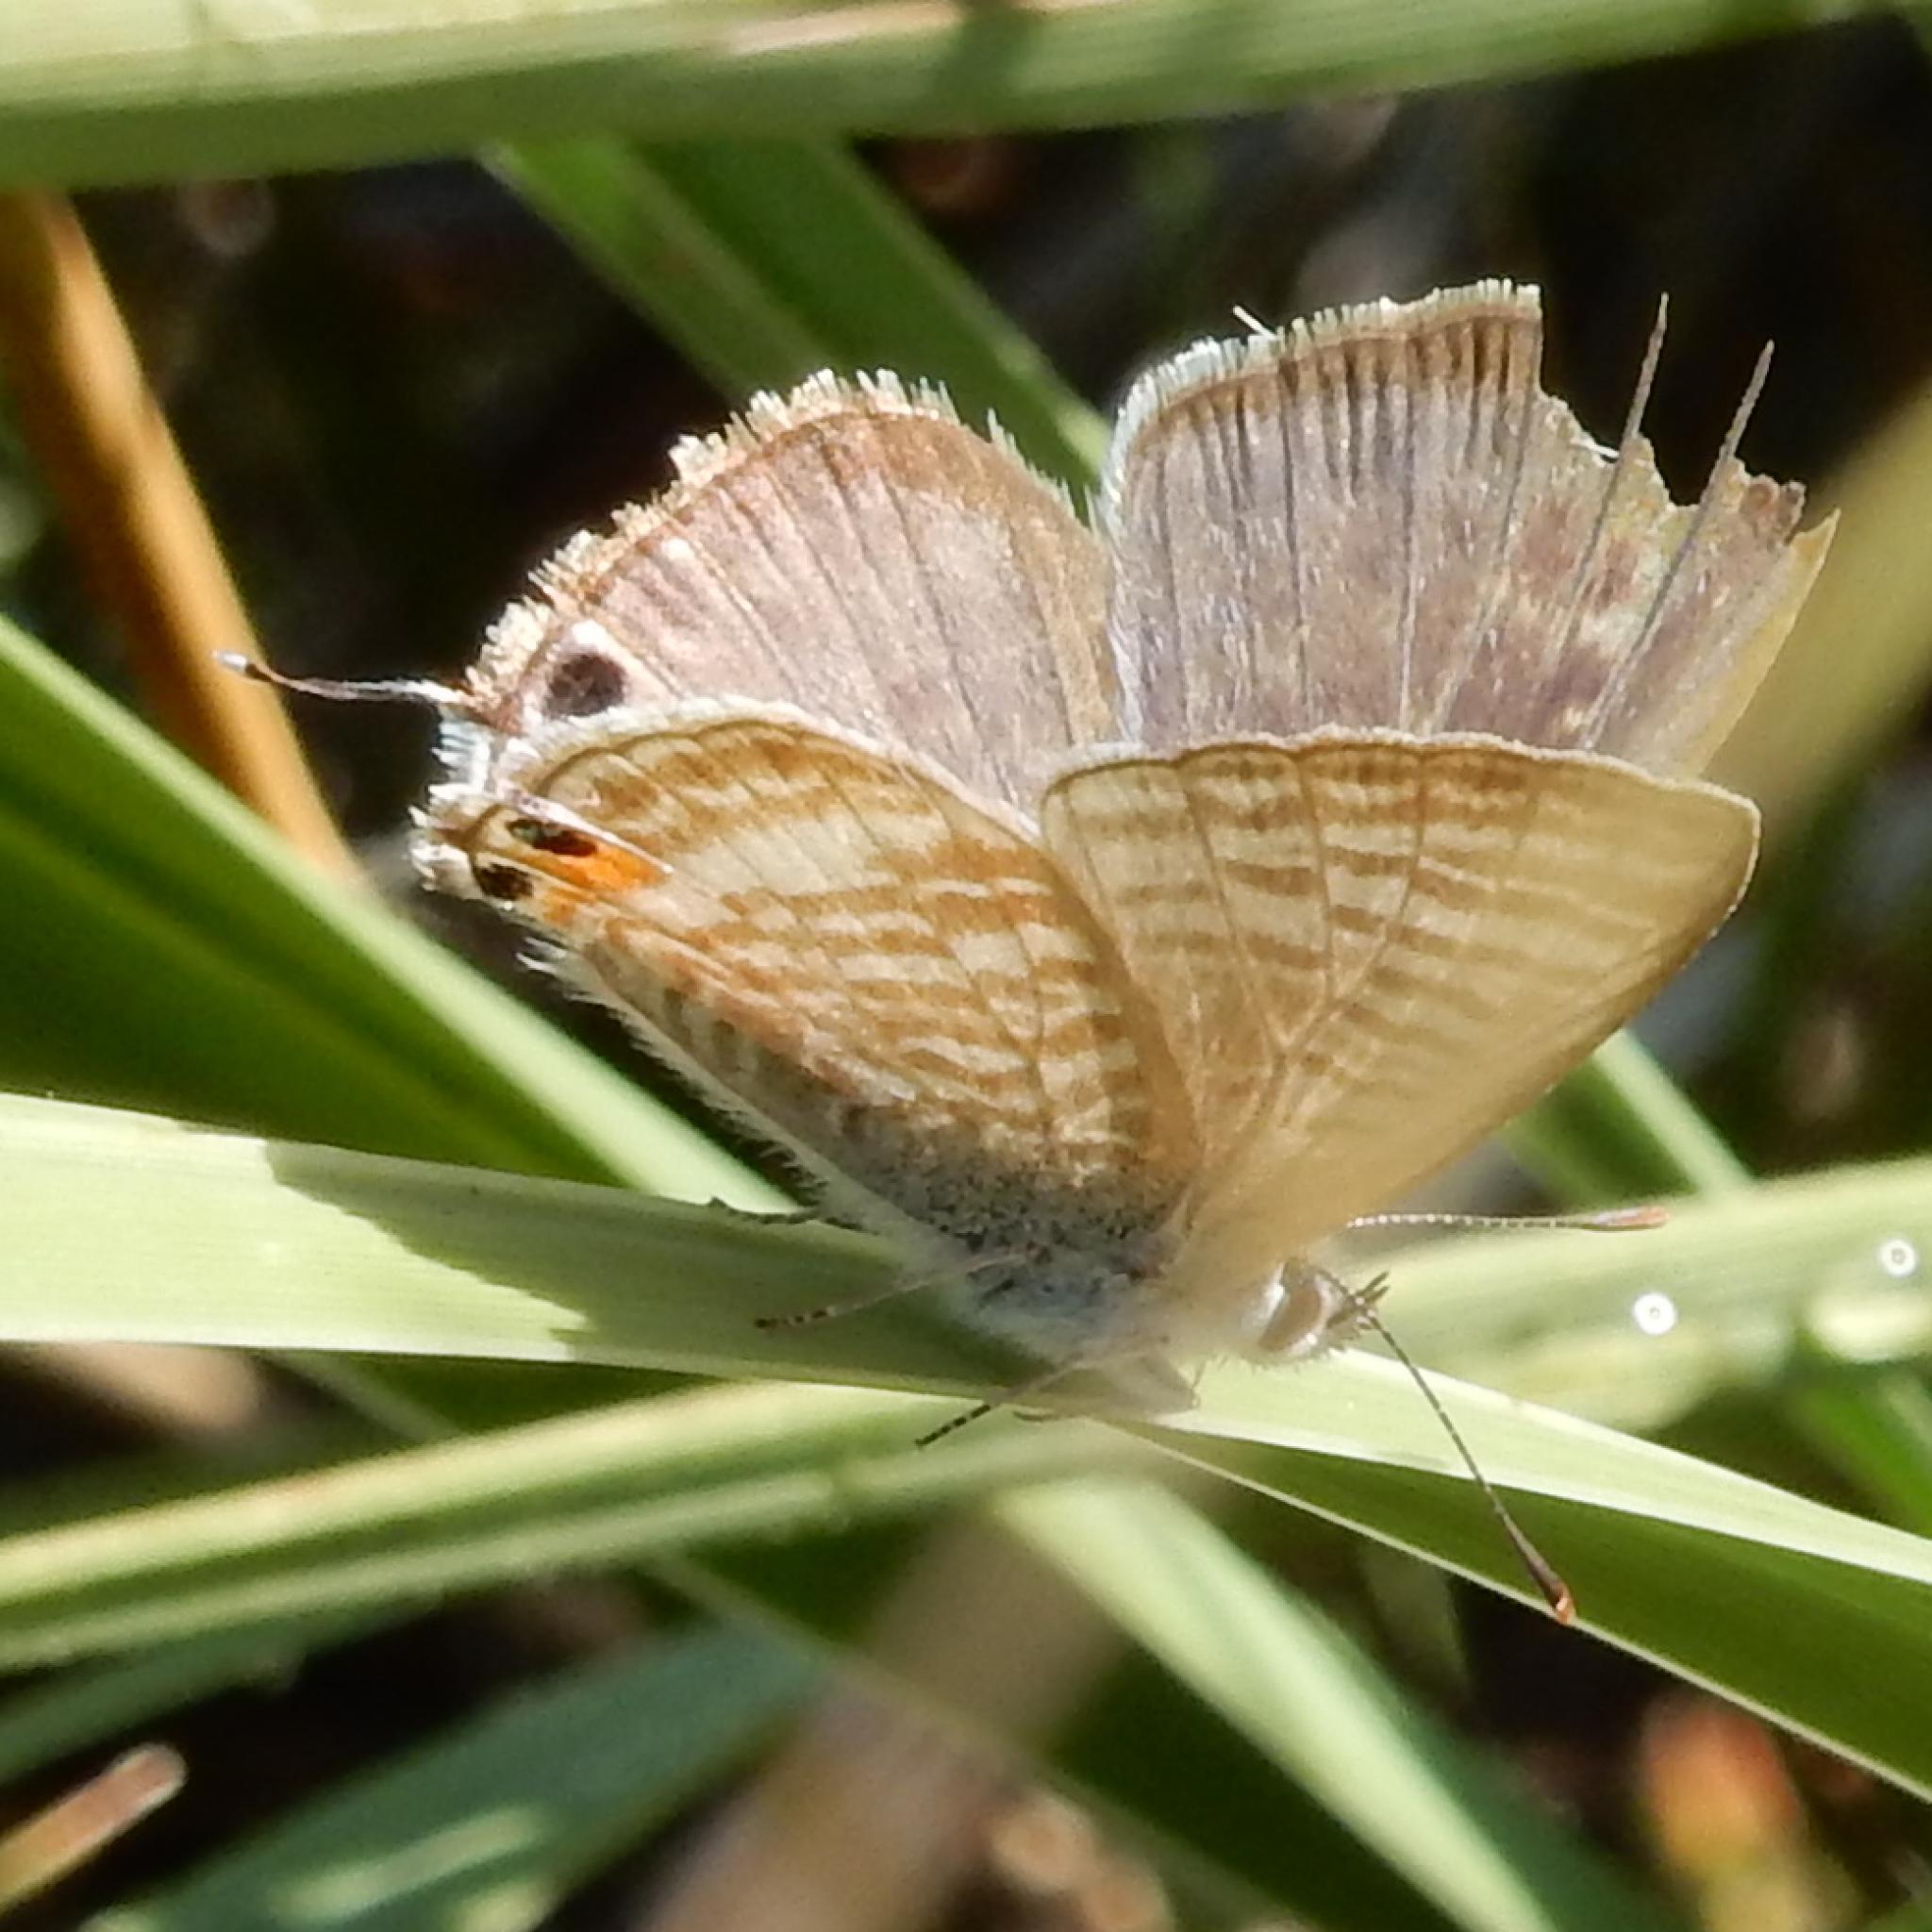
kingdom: Animalia
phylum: Arthropoda
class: Insecta
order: Lepidoptera
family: Lycaenidae
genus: Lampides
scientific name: Lampides boeticus
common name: Long-tailed blue
